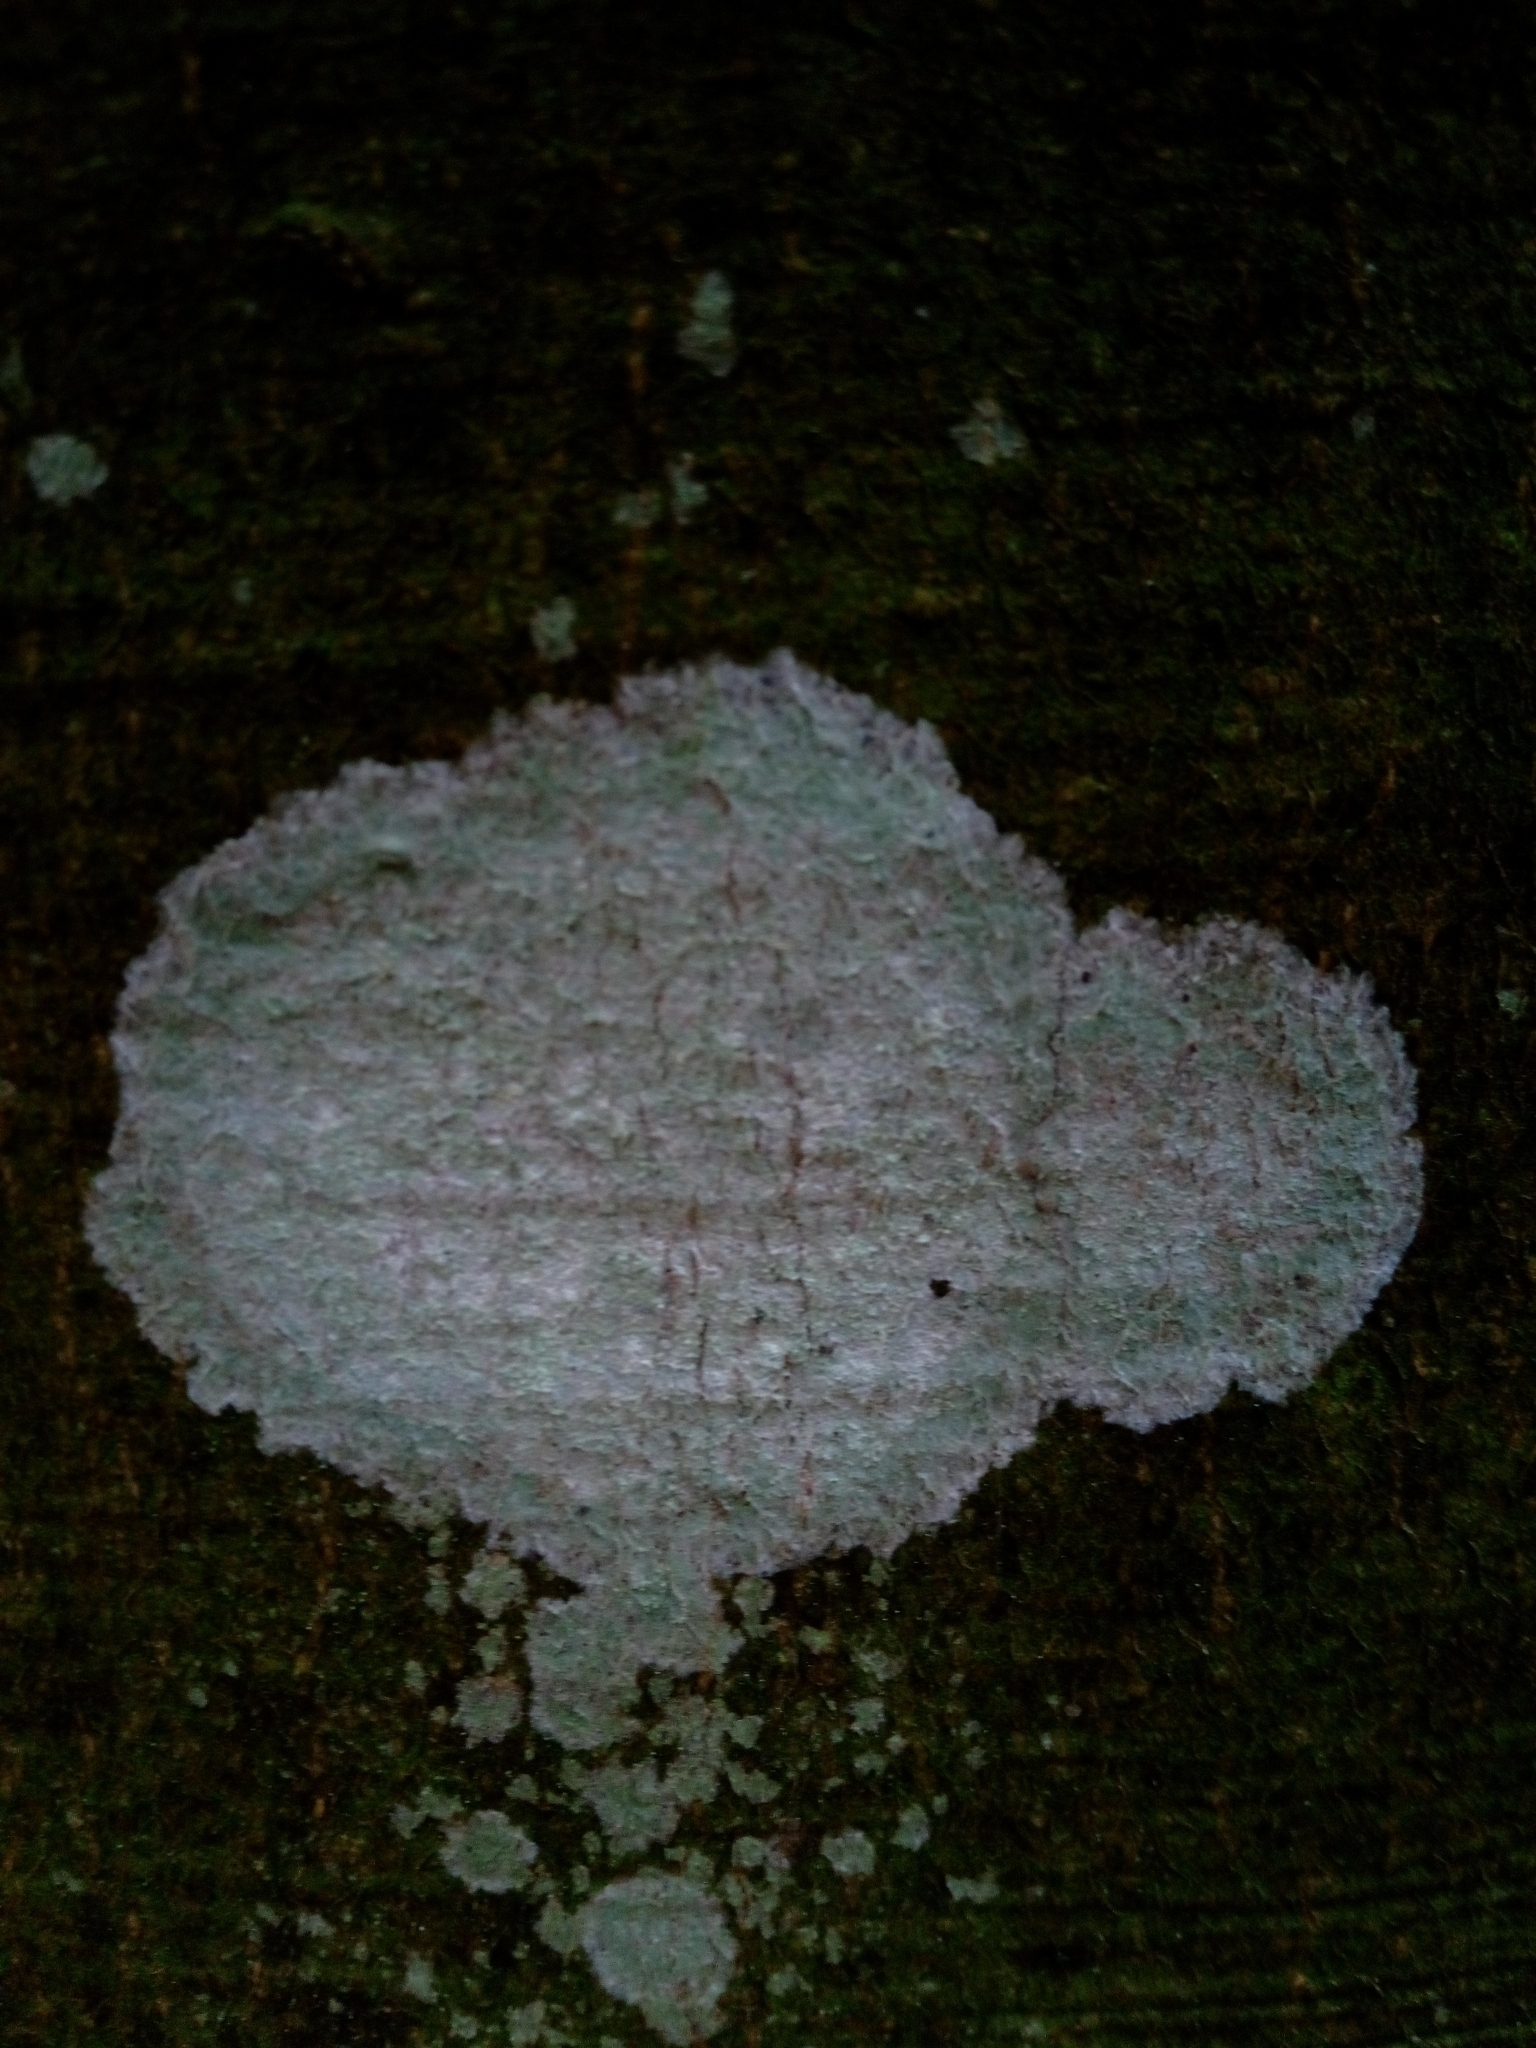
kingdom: Fungi
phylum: Ascomycota
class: Lecanoromycetes
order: Ostropales
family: Phlyctidaceae
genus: Phlyctis
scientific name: Phlyctis argena
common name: Whitewash lichen
